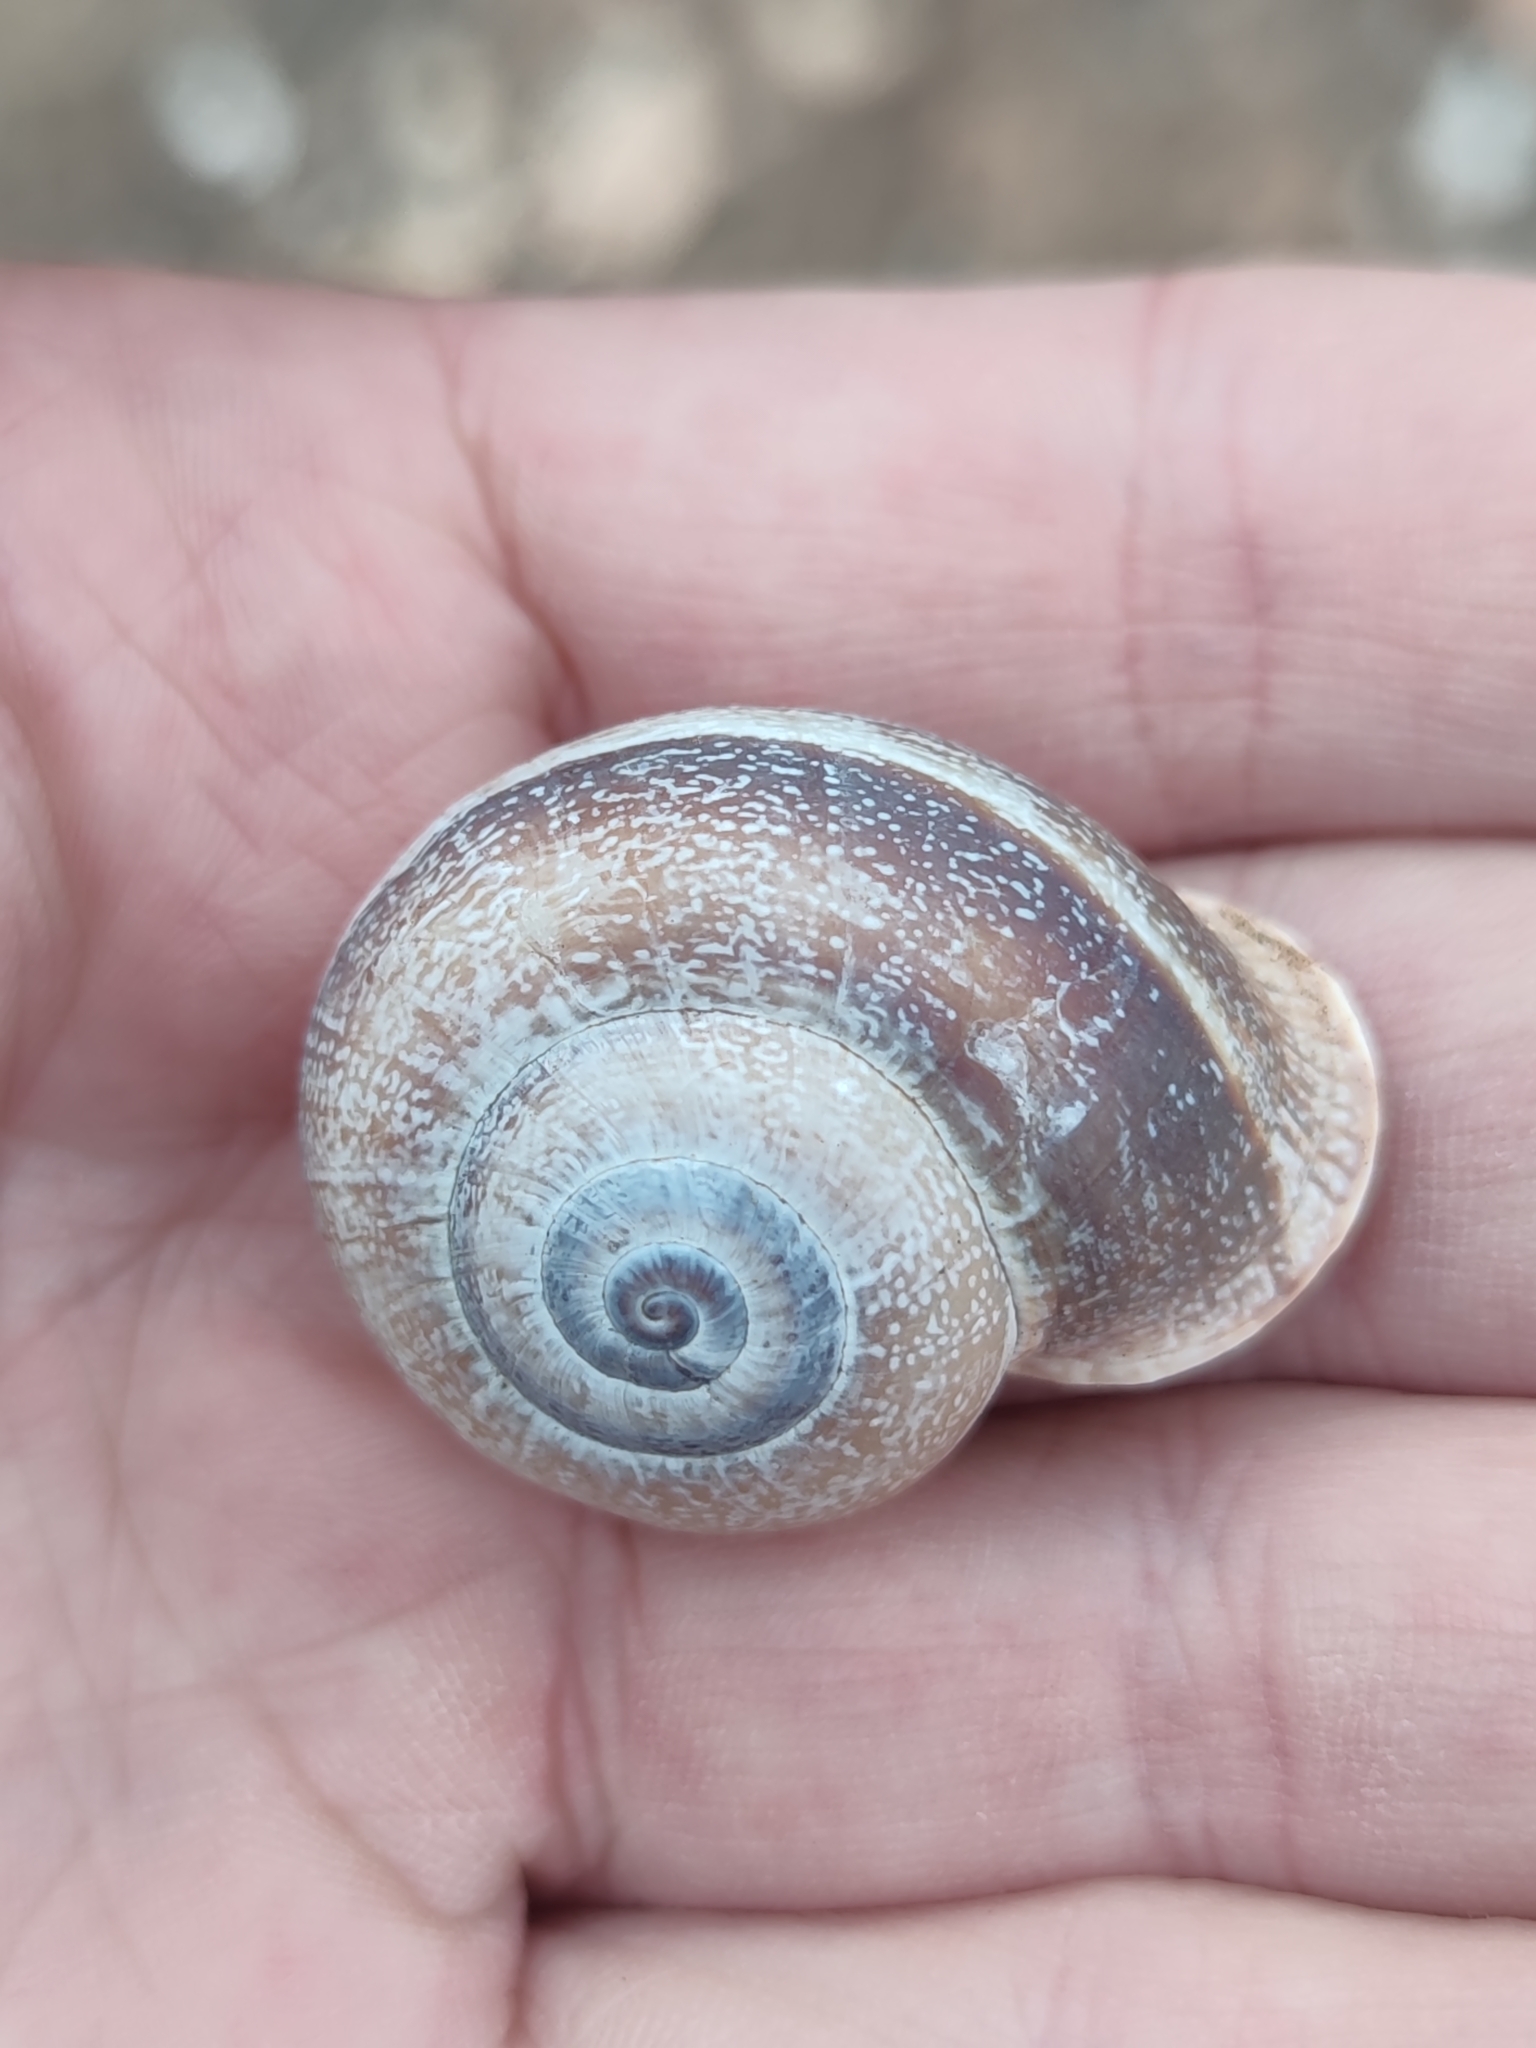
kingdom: Animalia
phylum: Mollusca
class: Gastropoda
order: Stylommatophora
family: Helicidae
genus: Otala
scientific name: Otala punctata
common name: Milk snail
